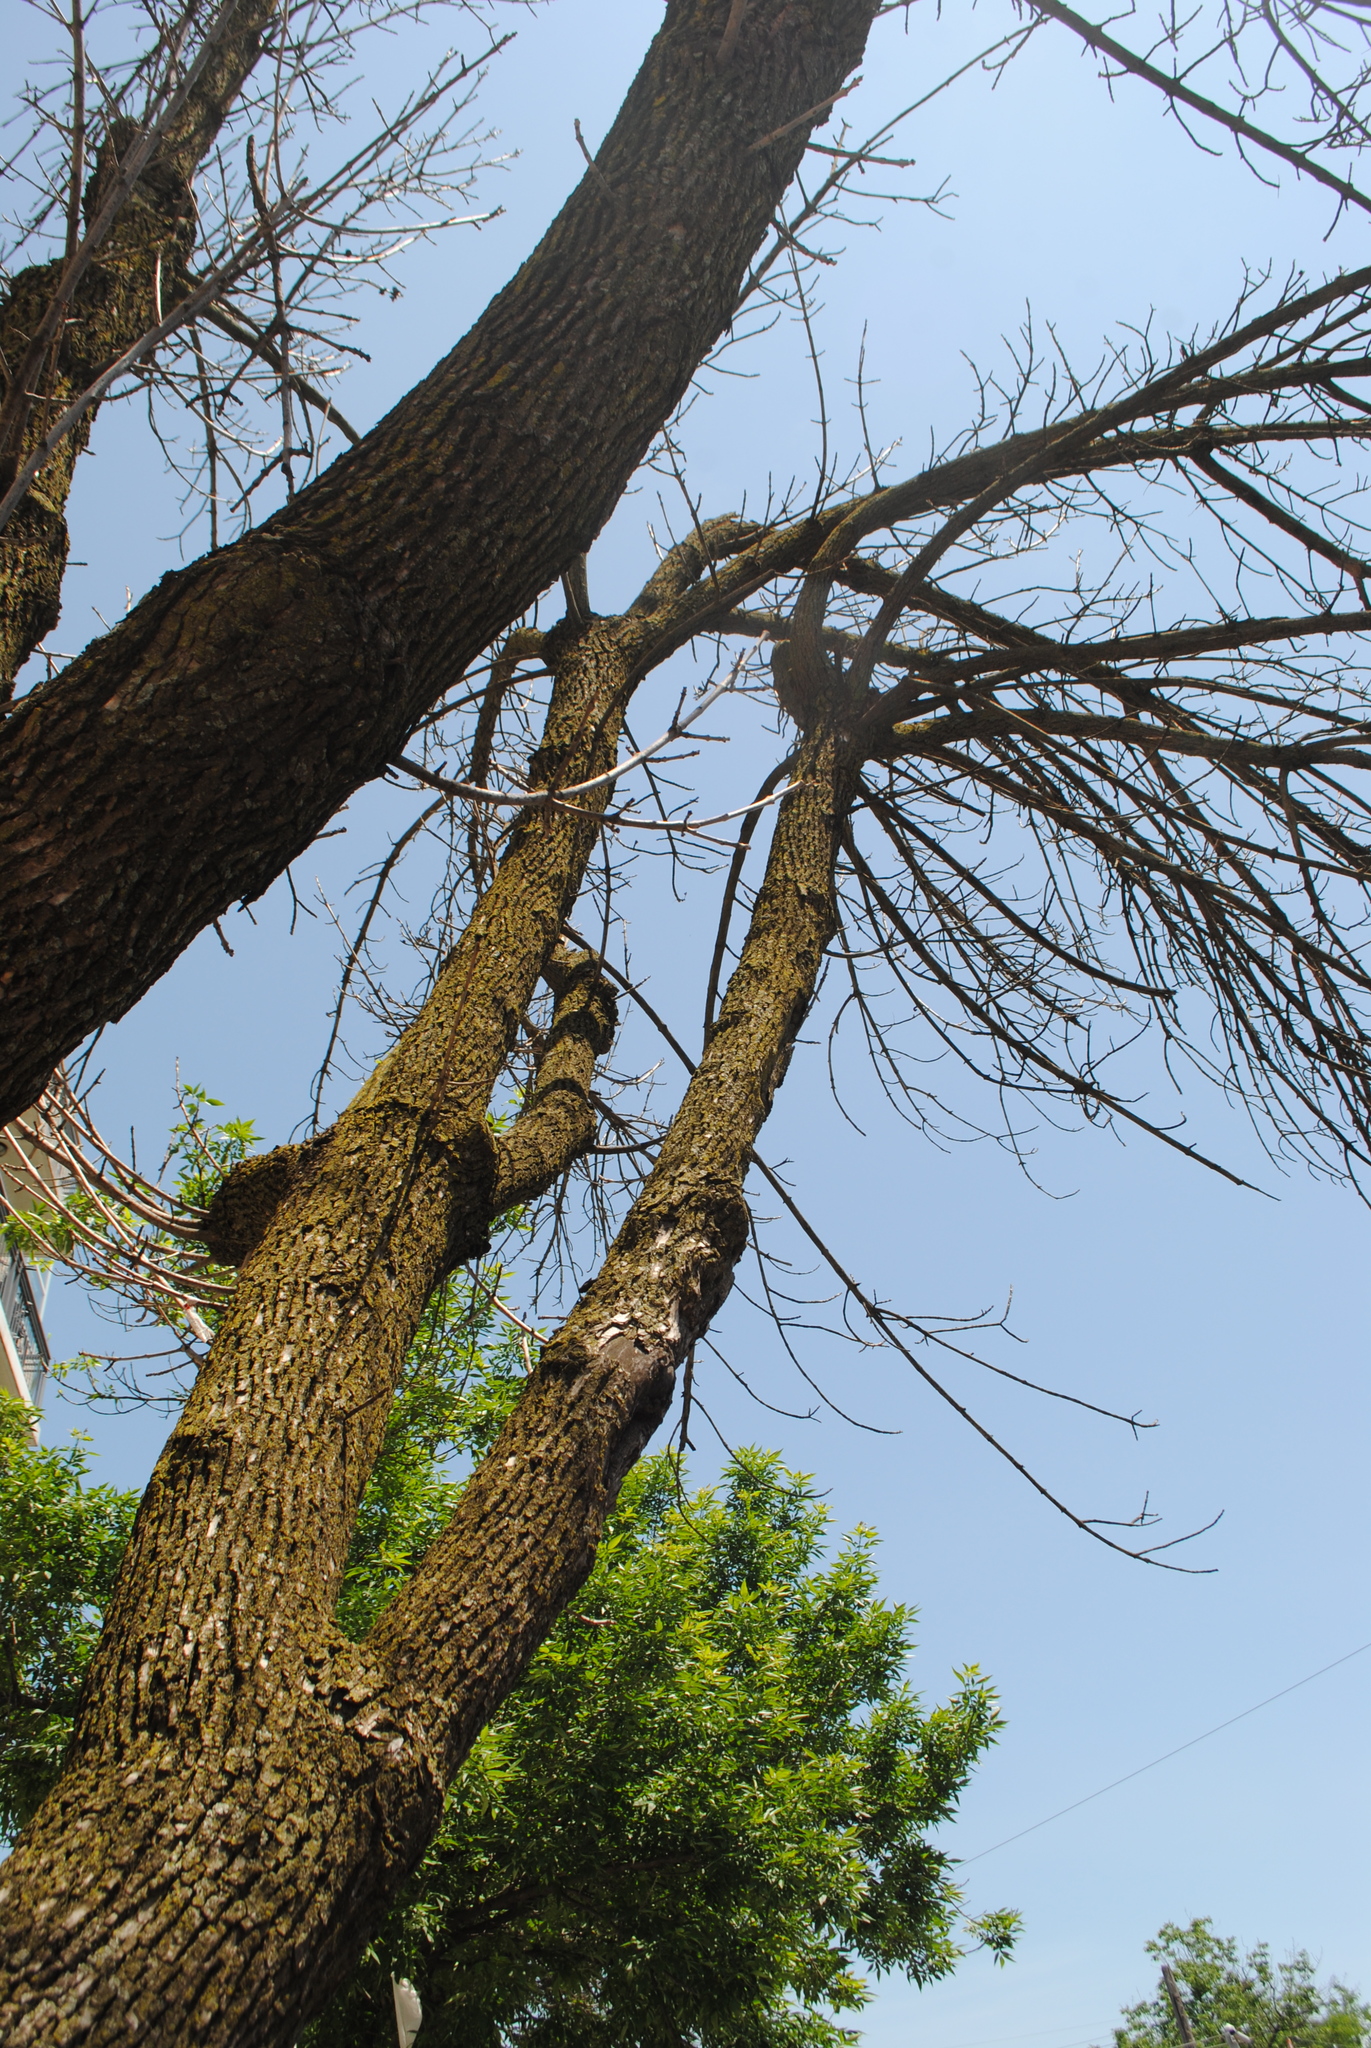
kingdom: Plantae
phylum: Tracheophyta
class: Magnoliopsida
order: Lamiales
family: Oleaceae
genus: Fraxinus
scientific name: Fraxinus pennsylvanica
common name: Green ash
